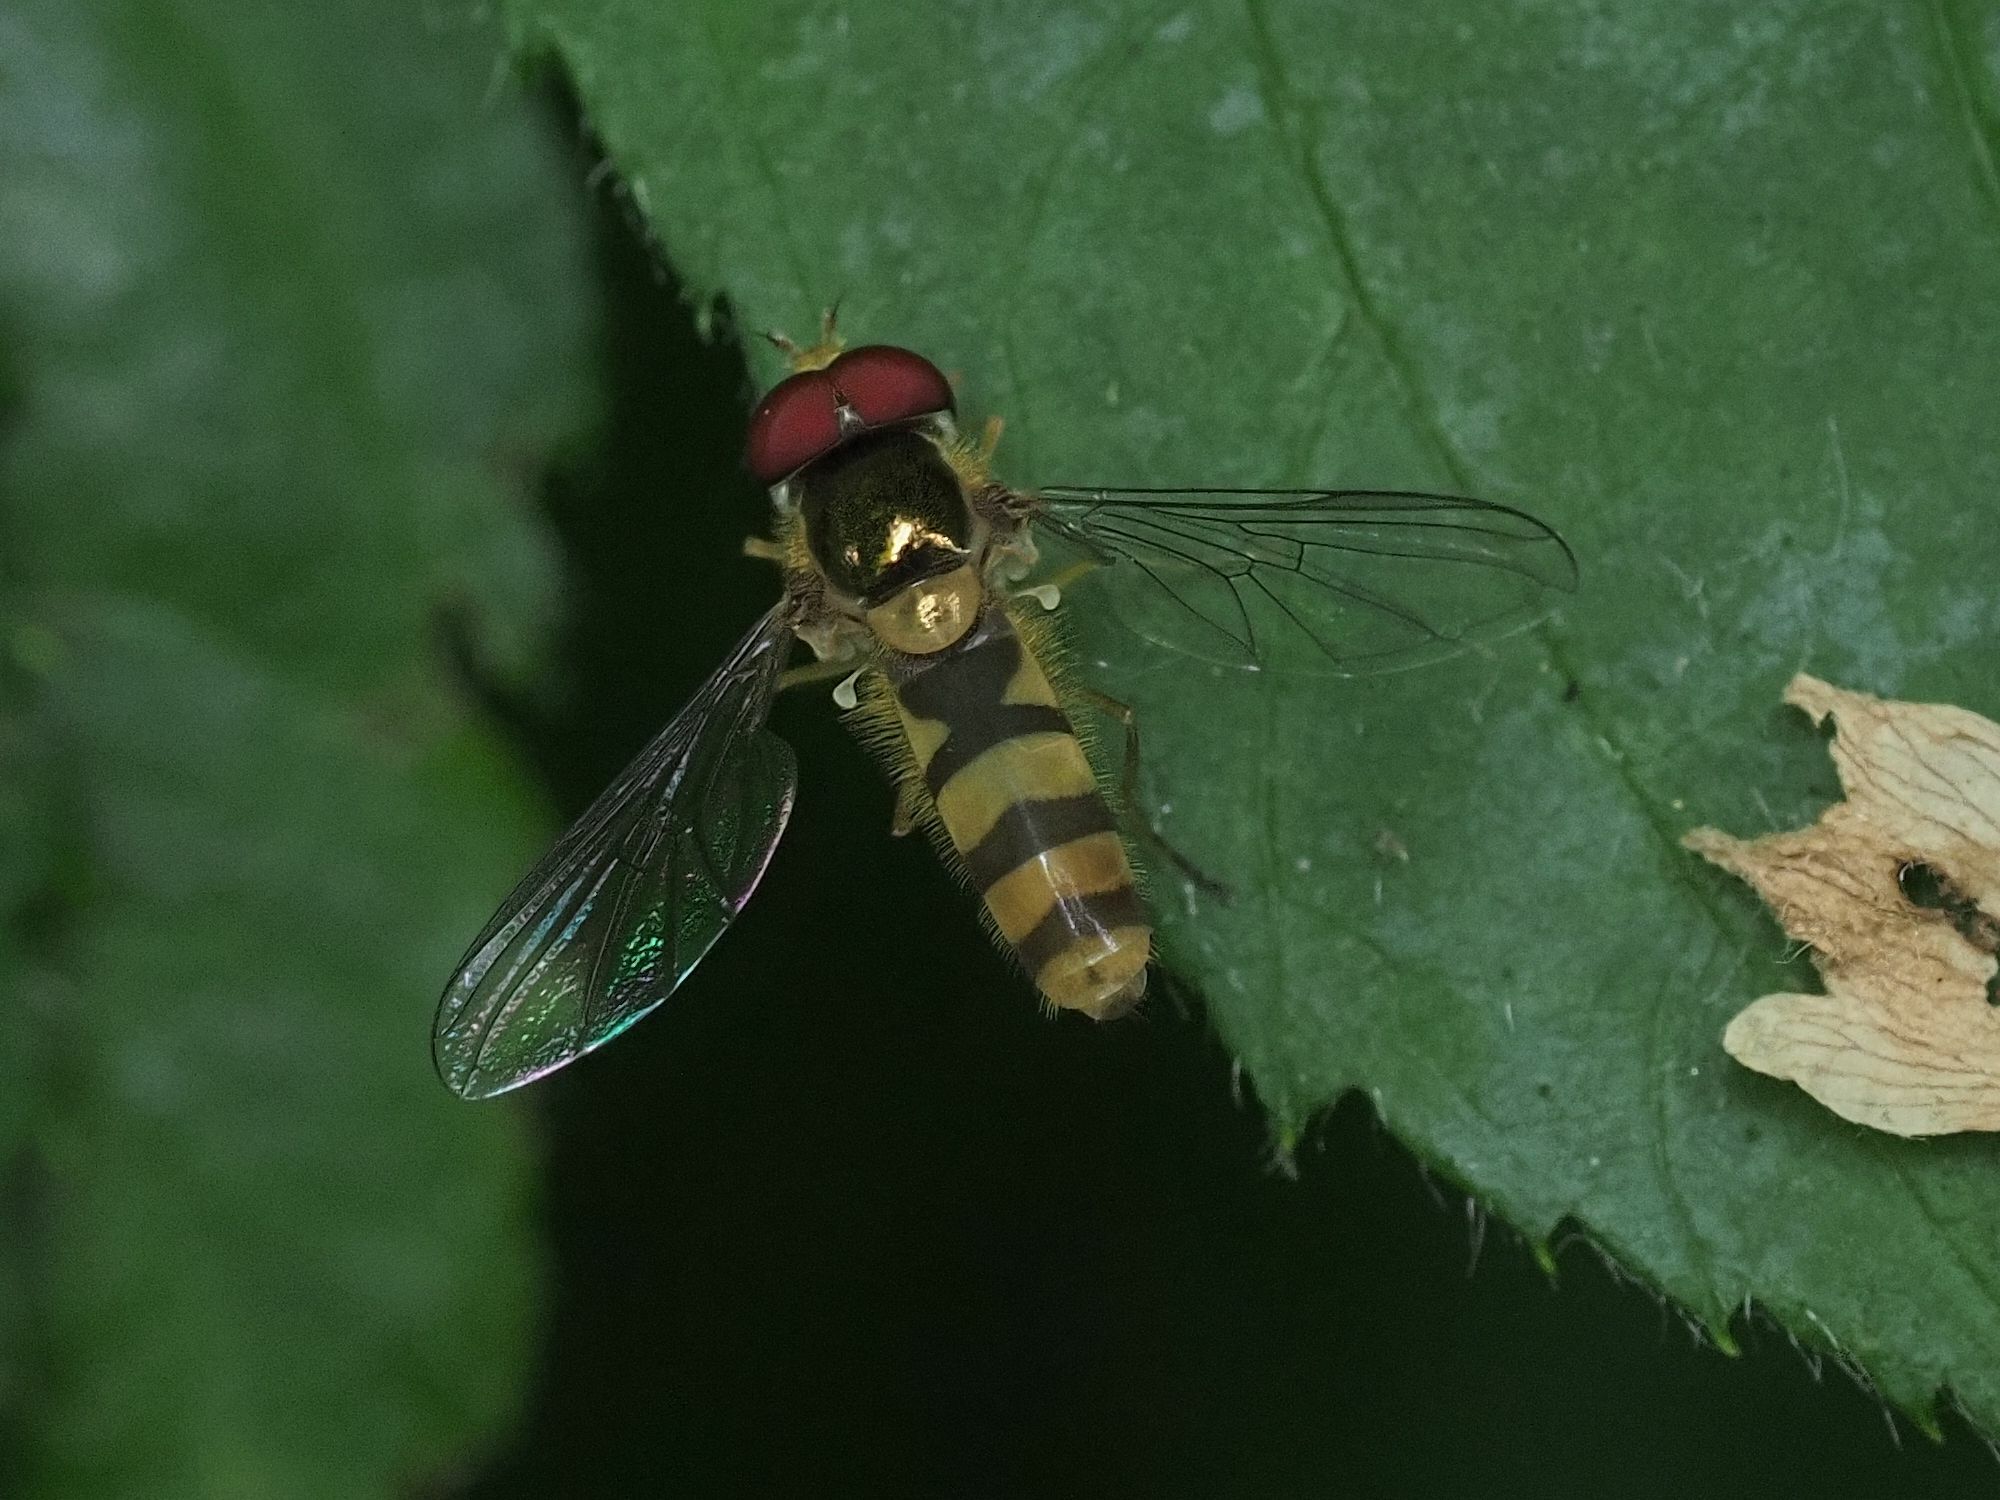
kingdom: Animalia
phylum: Arthropoda
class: Insecta
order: Diptera
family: Syrphidae
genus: Fagisyrphus
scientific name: Fagisyrphus cincta
